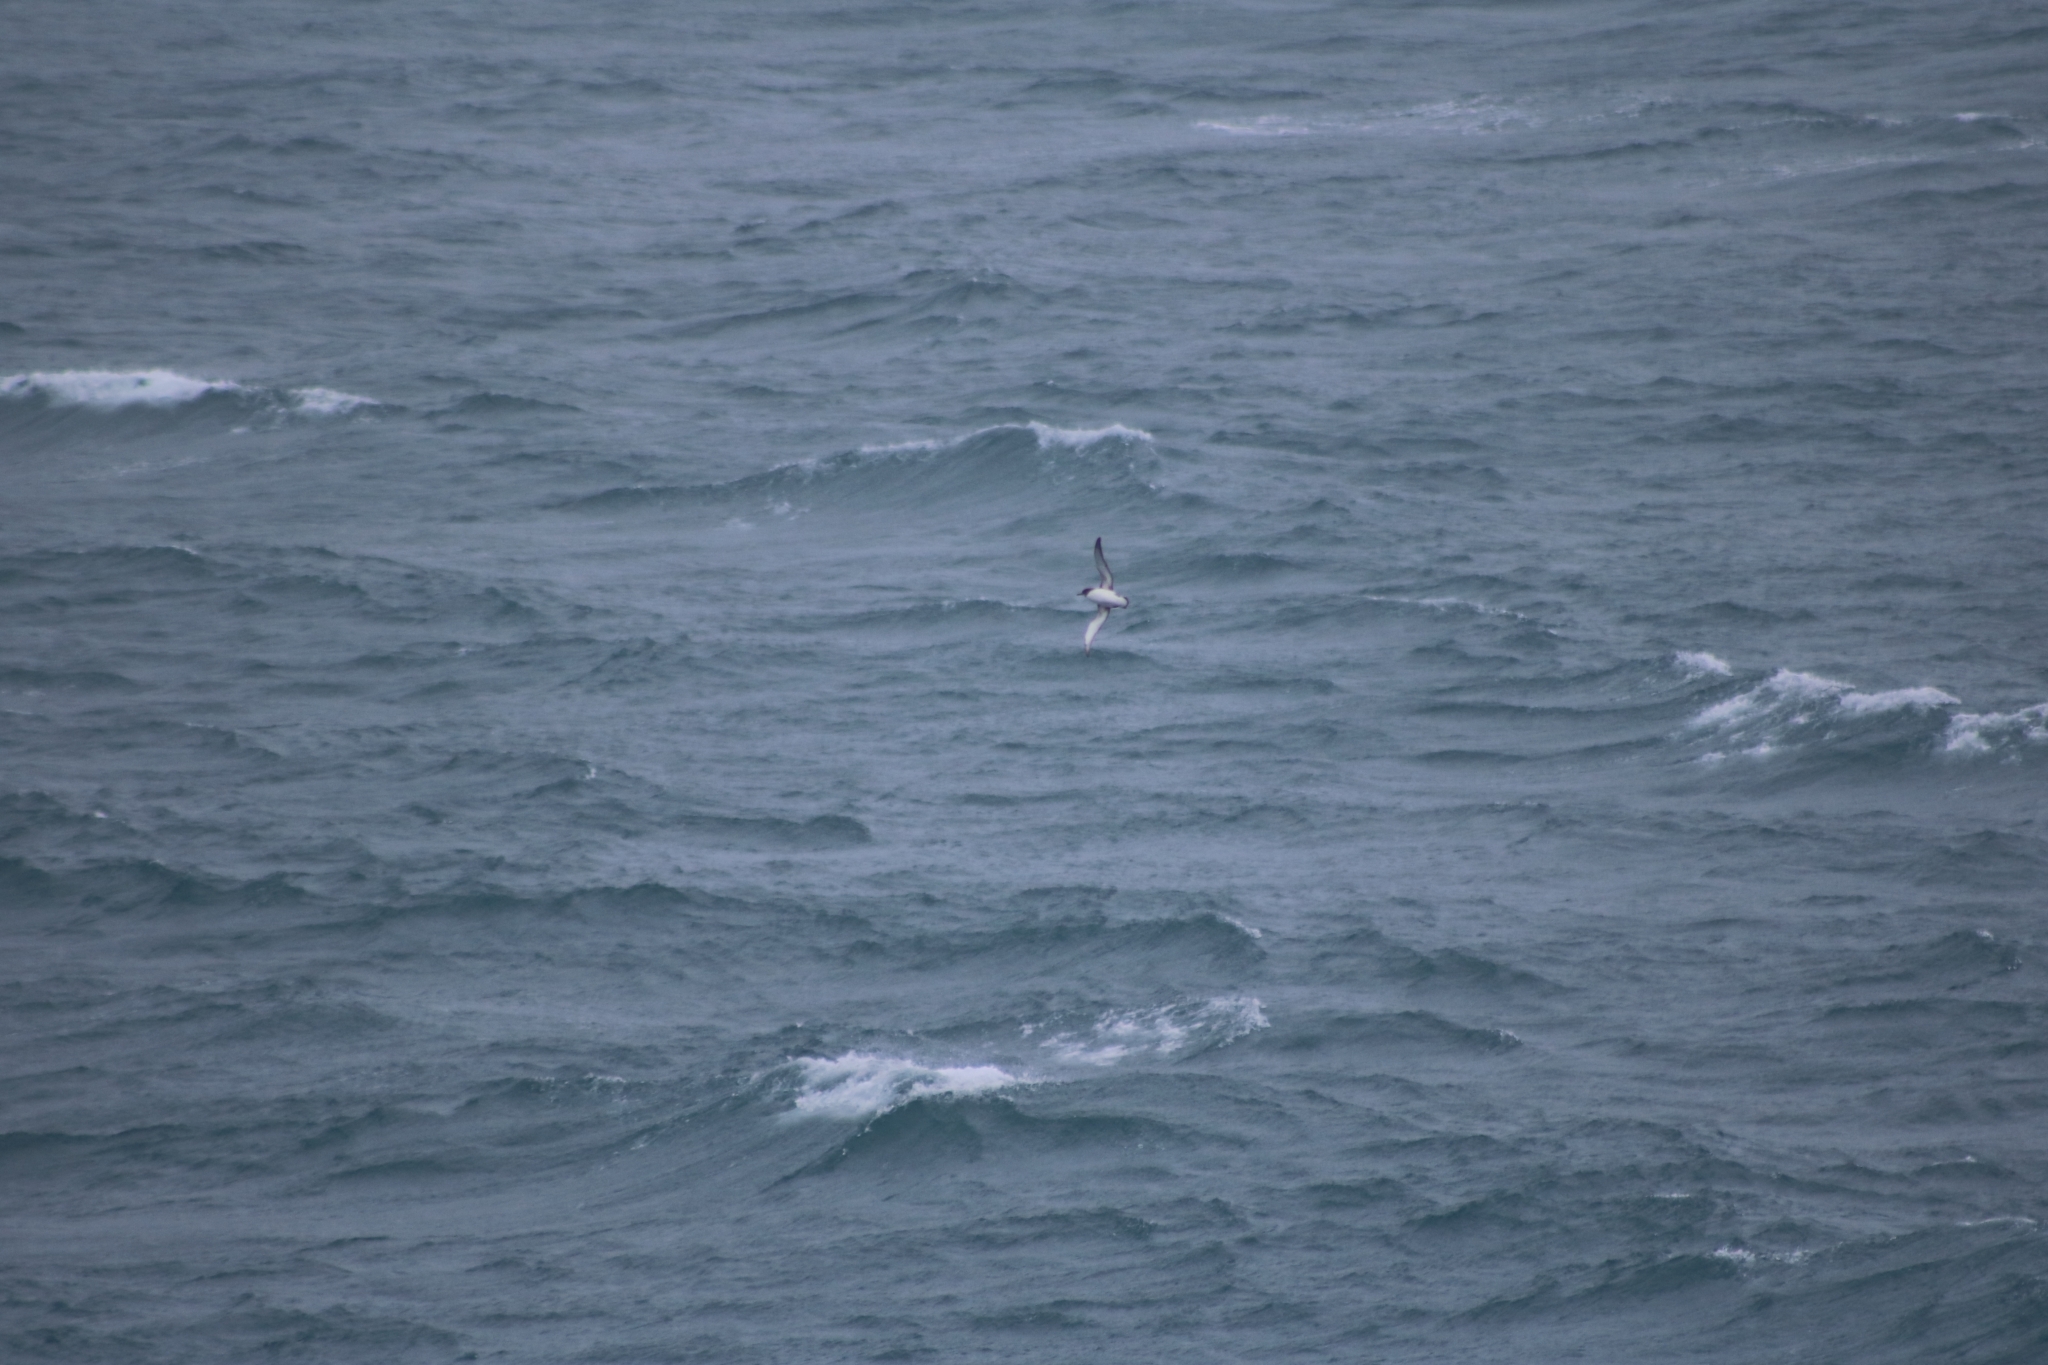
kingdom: Animalia
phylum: Chordata
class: Aves
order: Procellariiformes
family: Procellariidae
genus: Daption
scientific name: Daption capense
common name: Cape petrel
